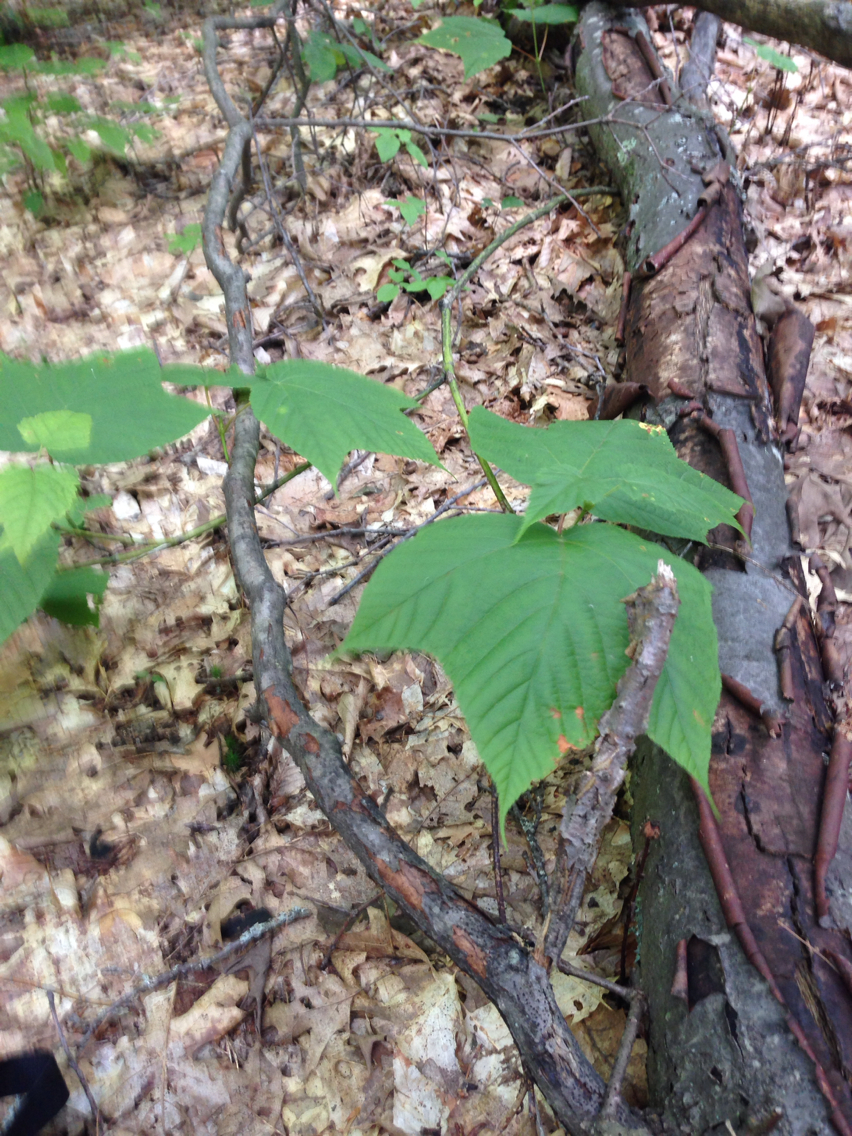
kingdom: Plantae
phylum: Tracheophyta
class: Magnoliopsida
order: Sapindales
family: Sapindaceae
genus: Acer
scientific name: Acer pensylvanicum
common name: Moosewood
